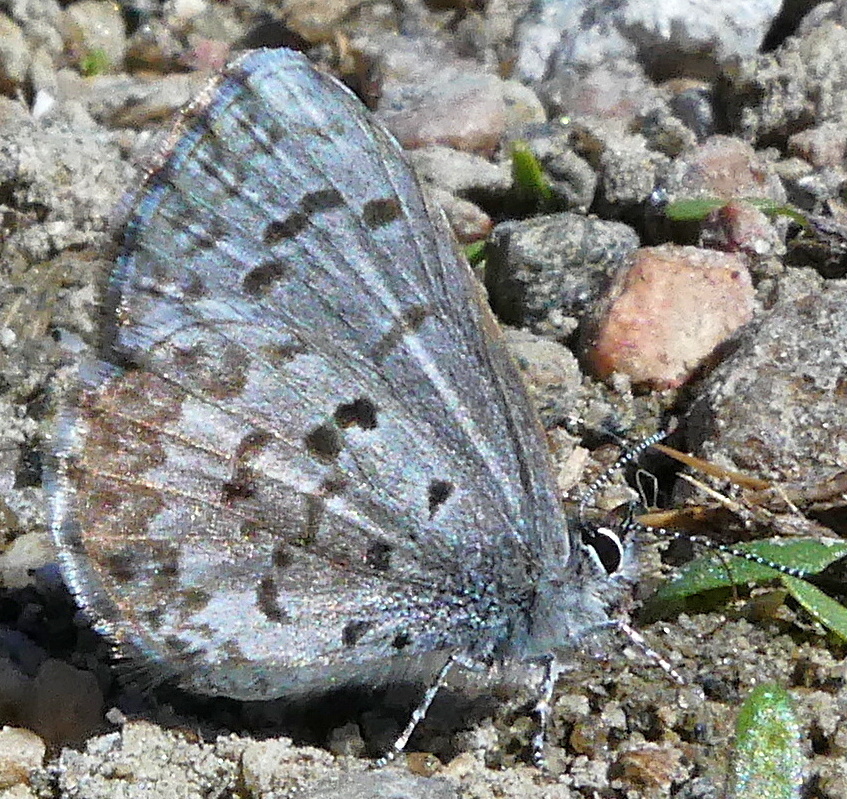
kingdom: Animalia
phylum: Arthropoda
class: Insecta
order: Lepidoptera
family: Lycaenidae
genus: Celastrina
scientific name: Celastrina lucia
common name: Lucia azure
